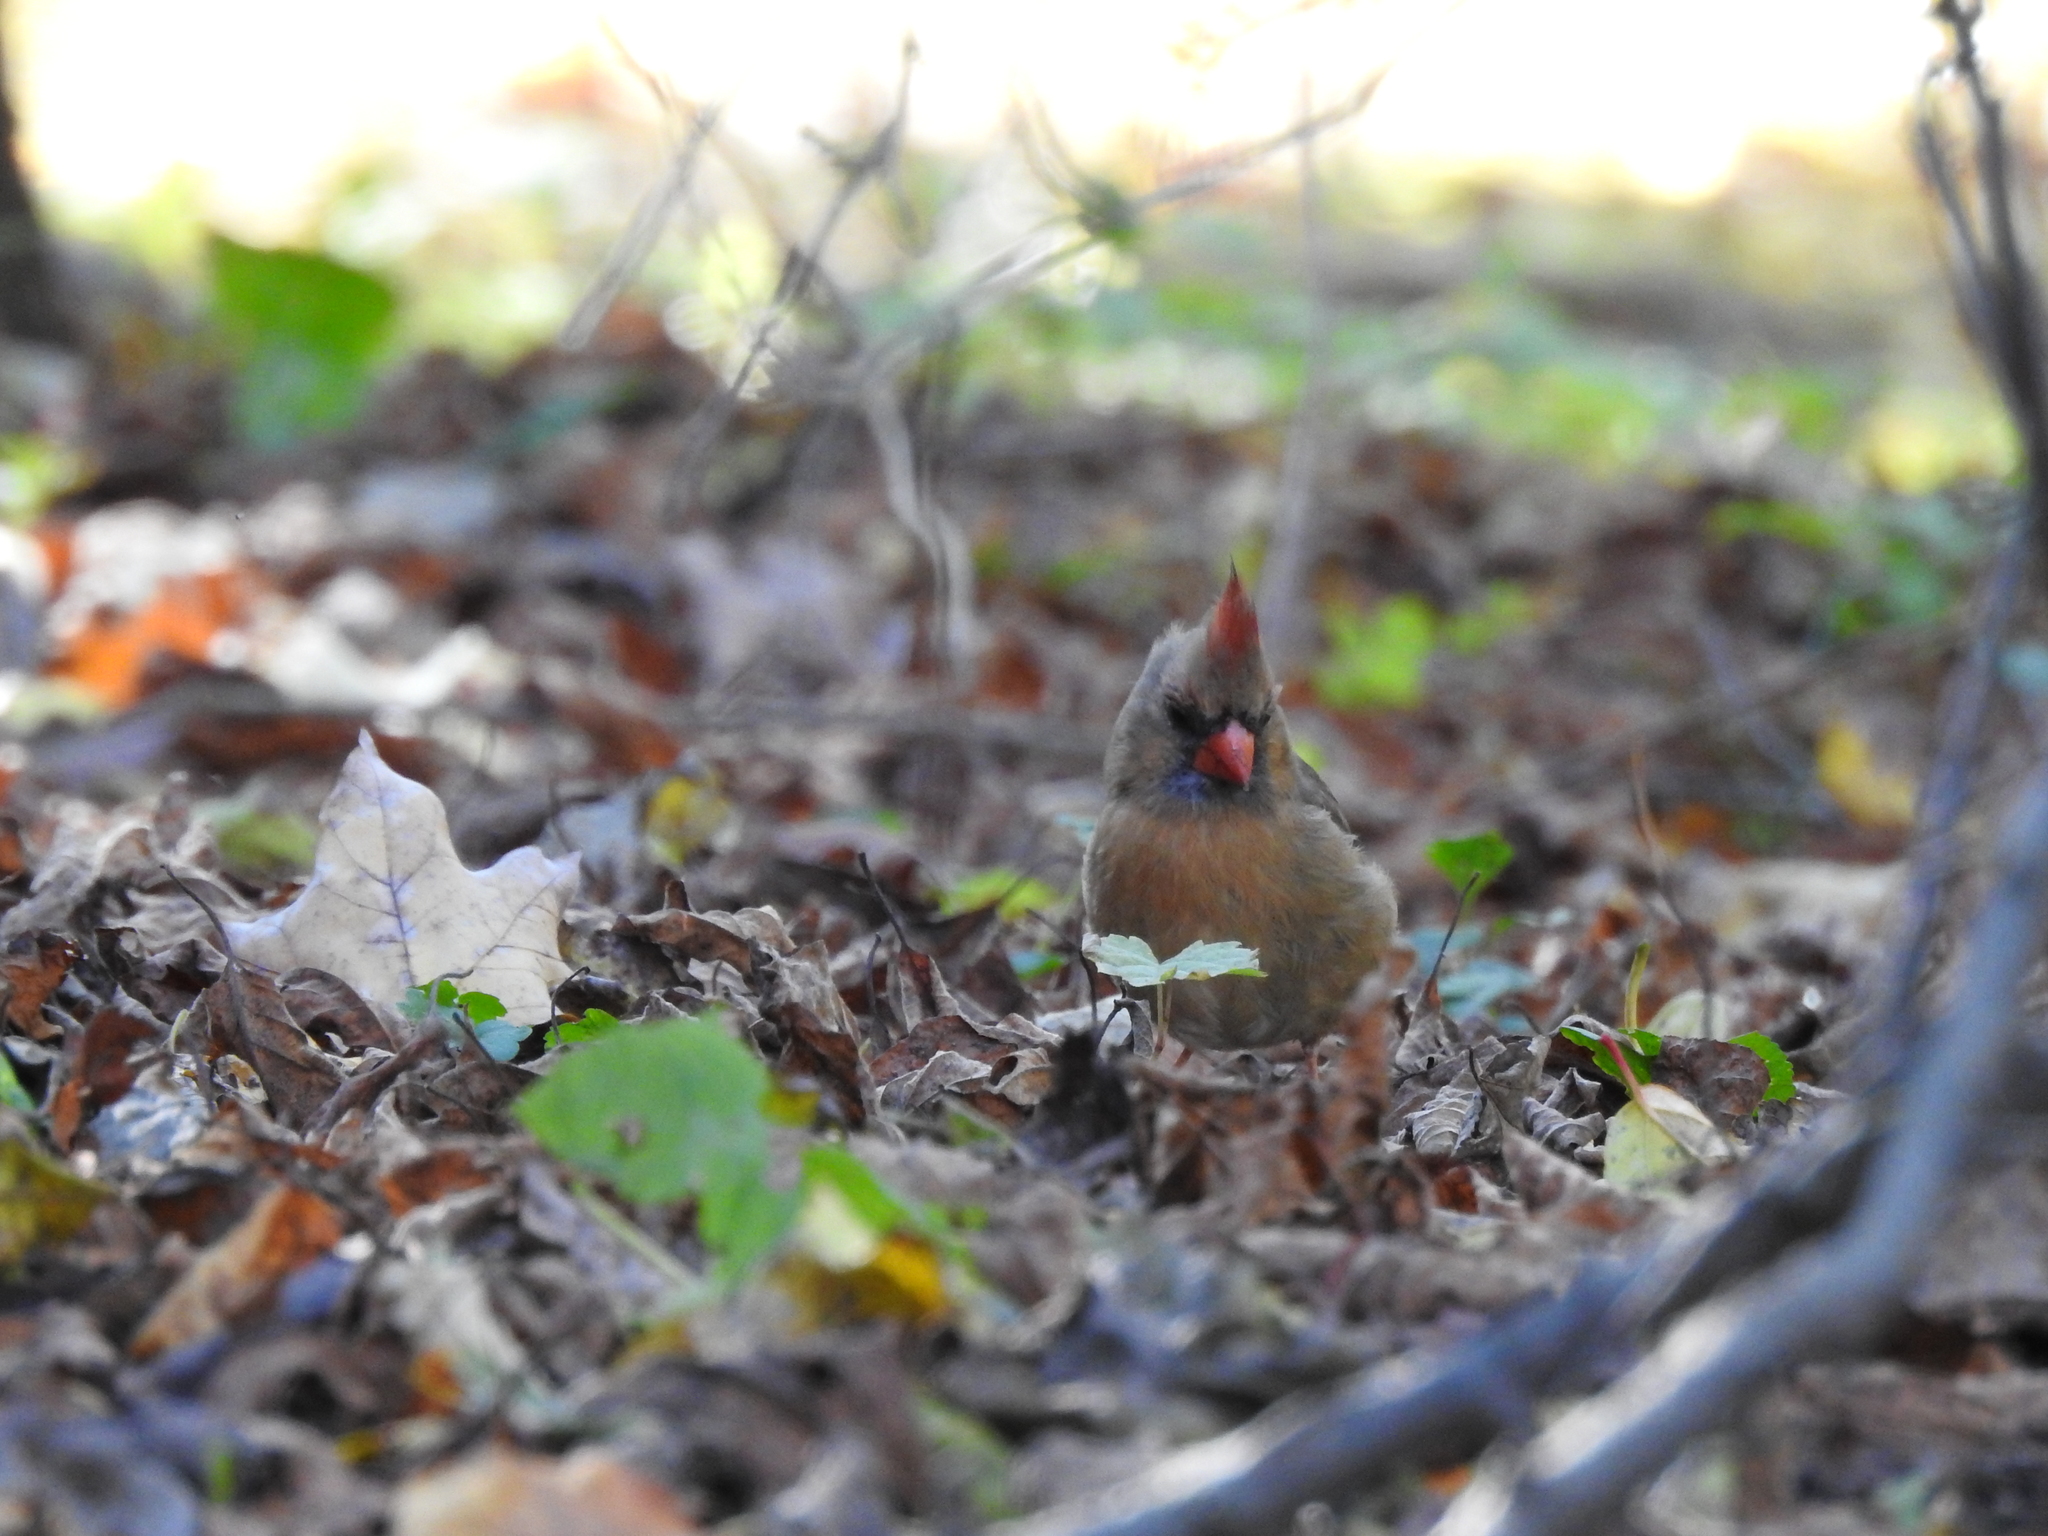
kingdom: Animalia
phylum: Chordata
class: Aves
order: Passeriformes
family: Cardinalidae
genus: Cardinalis
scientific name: Cardinalis cardinalis
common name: Northern cardinal
